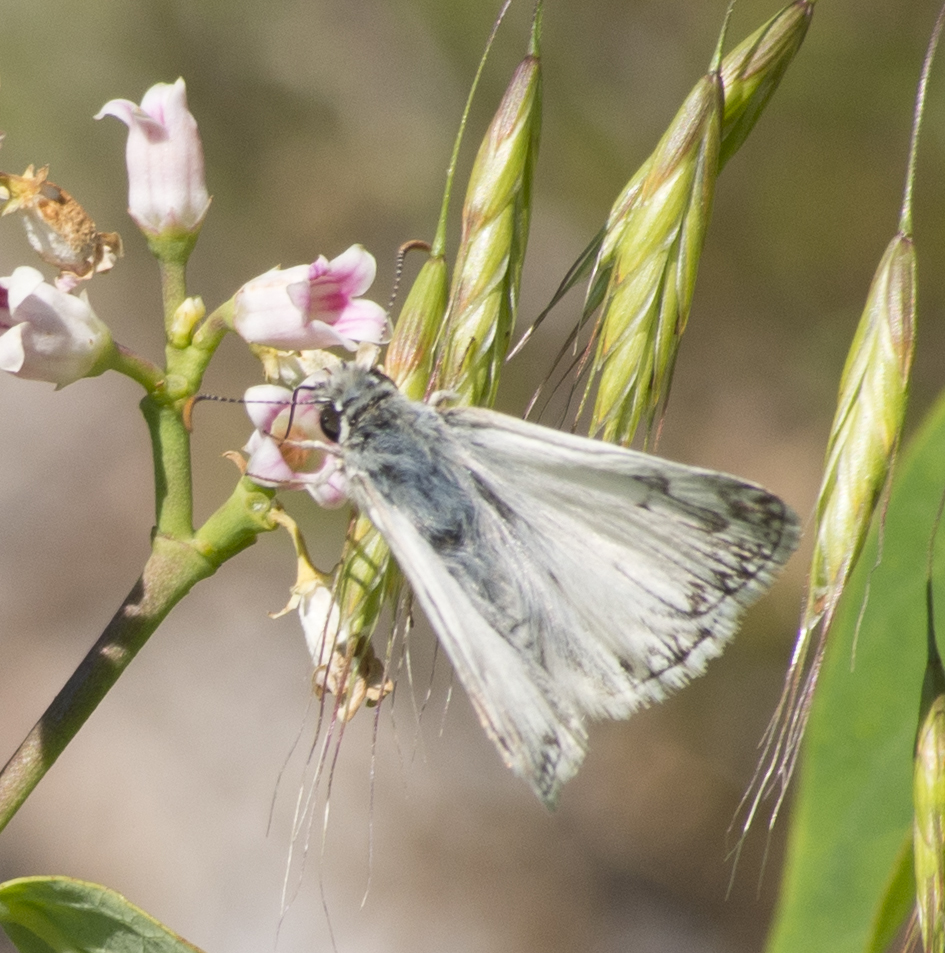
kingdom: Animalia
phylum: Arthropoda
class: Insecta
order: Lepidoptera
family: Hesperiidae
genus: Heliopetes
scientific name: Heliopetes ericetorum
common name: Northern white-skipper
